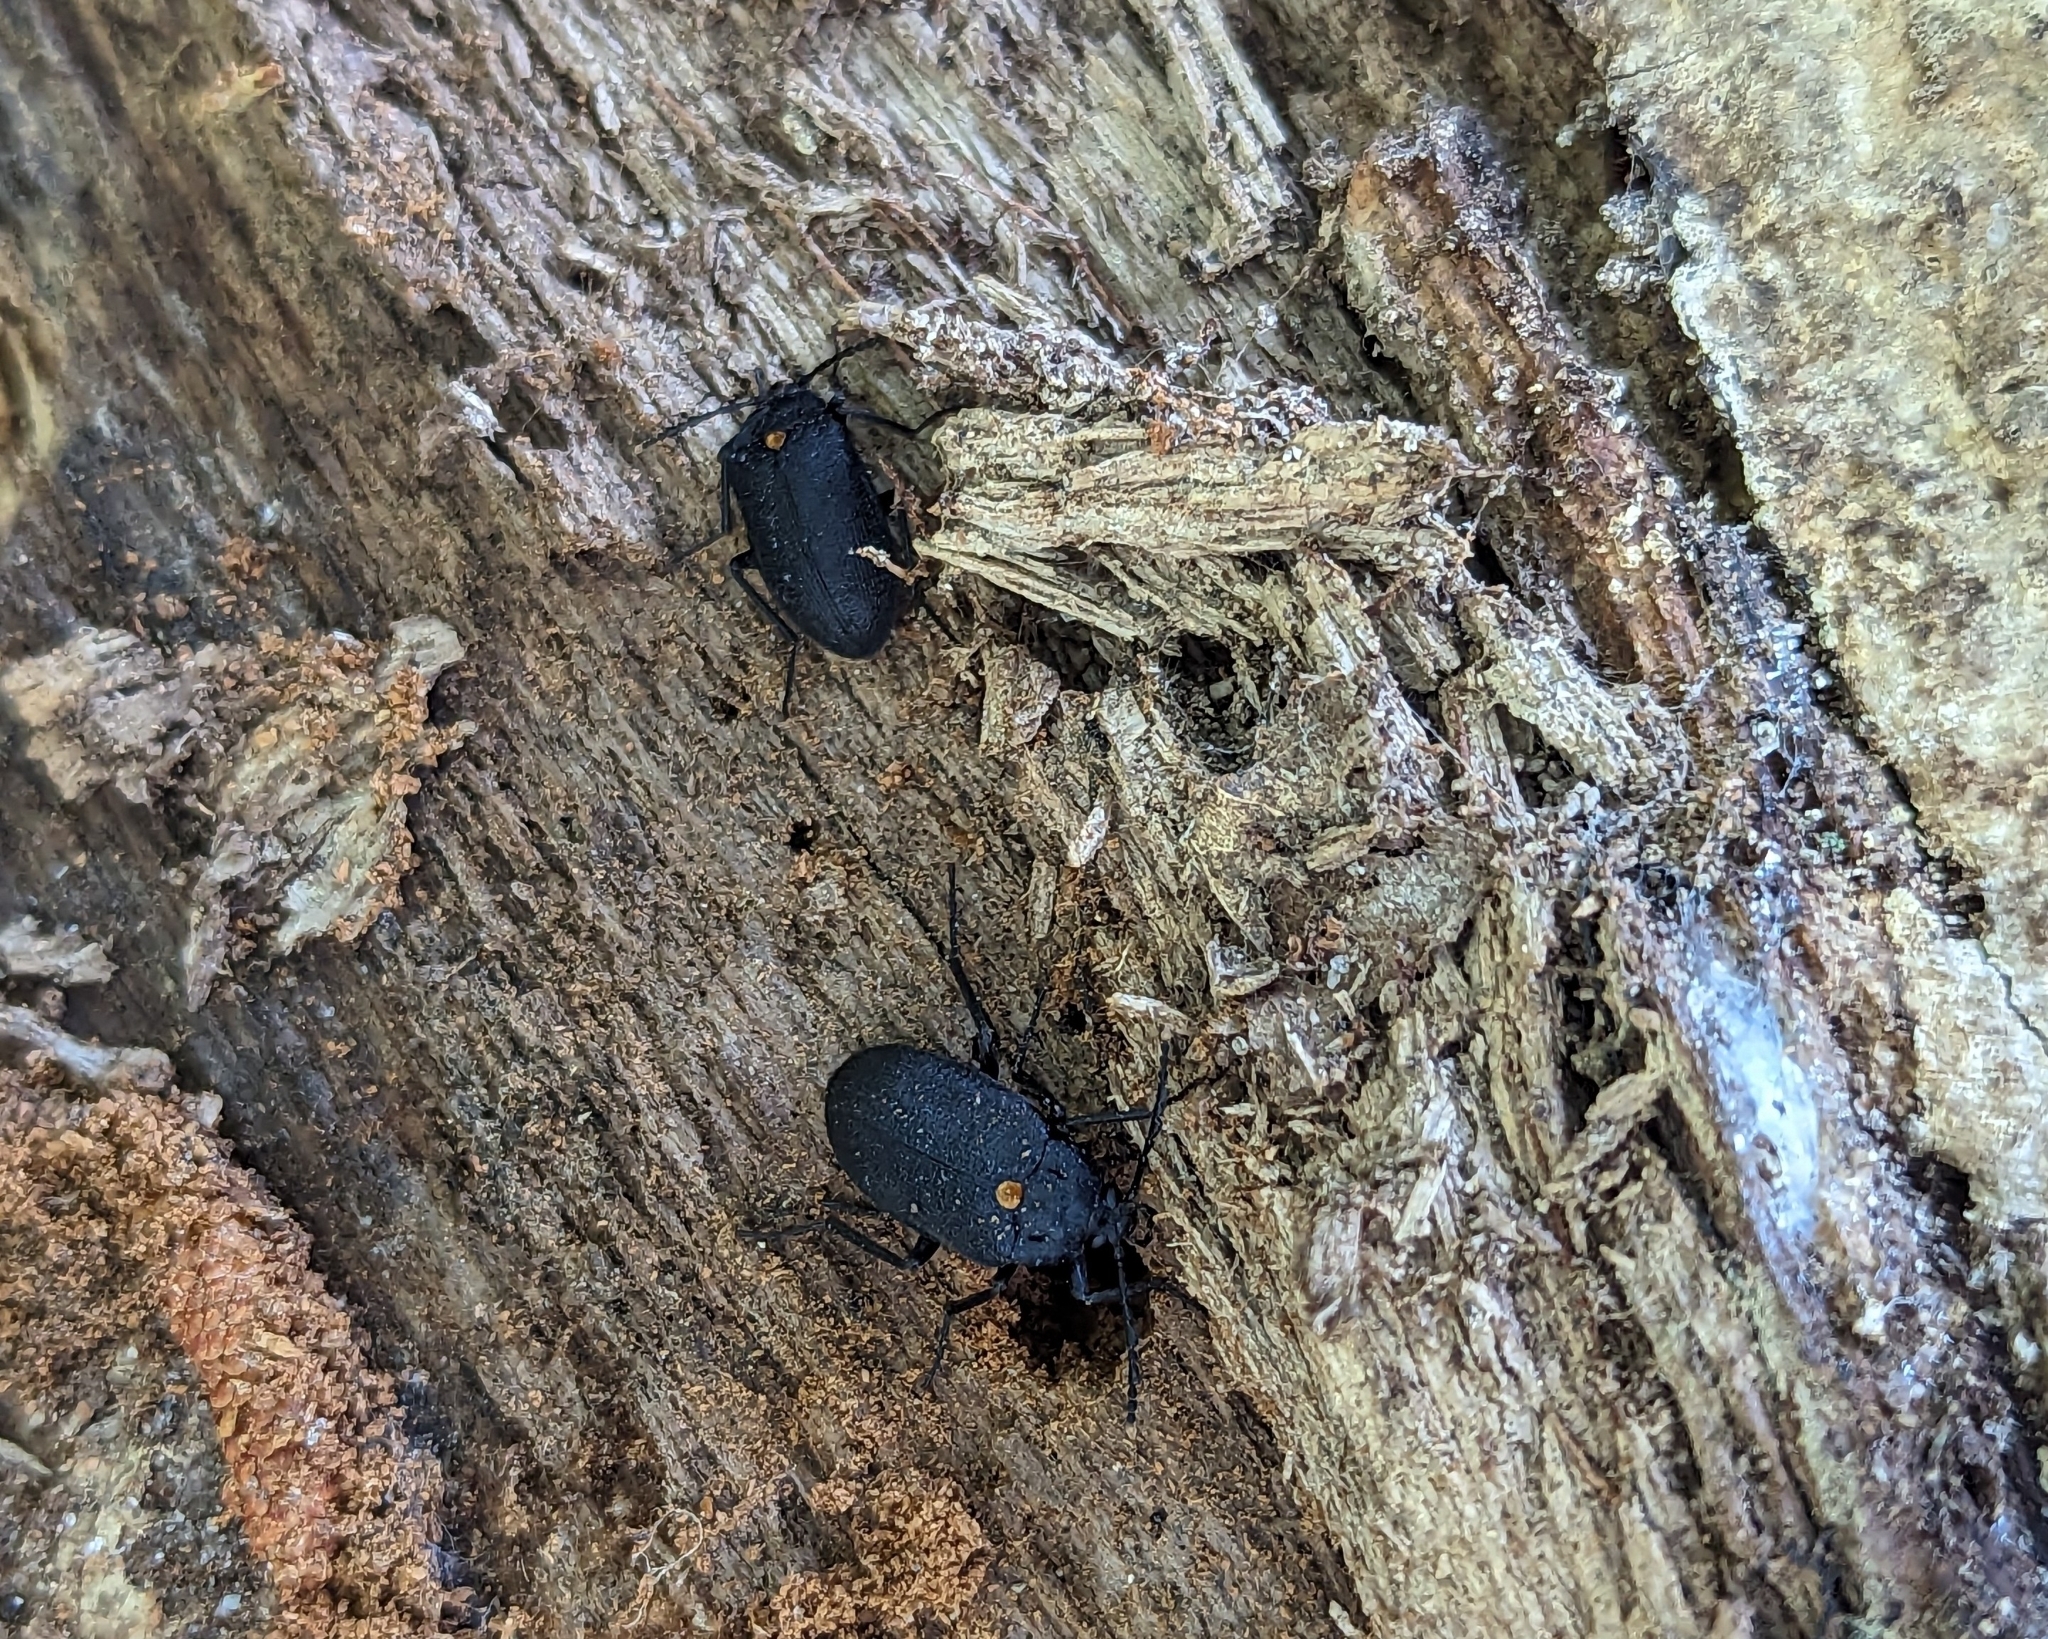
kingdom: Animalia
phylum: Arthropoda
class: Insecta
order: Coleoptera
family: Tetratomidae
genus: Penthe
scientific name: Penthe obliquata
